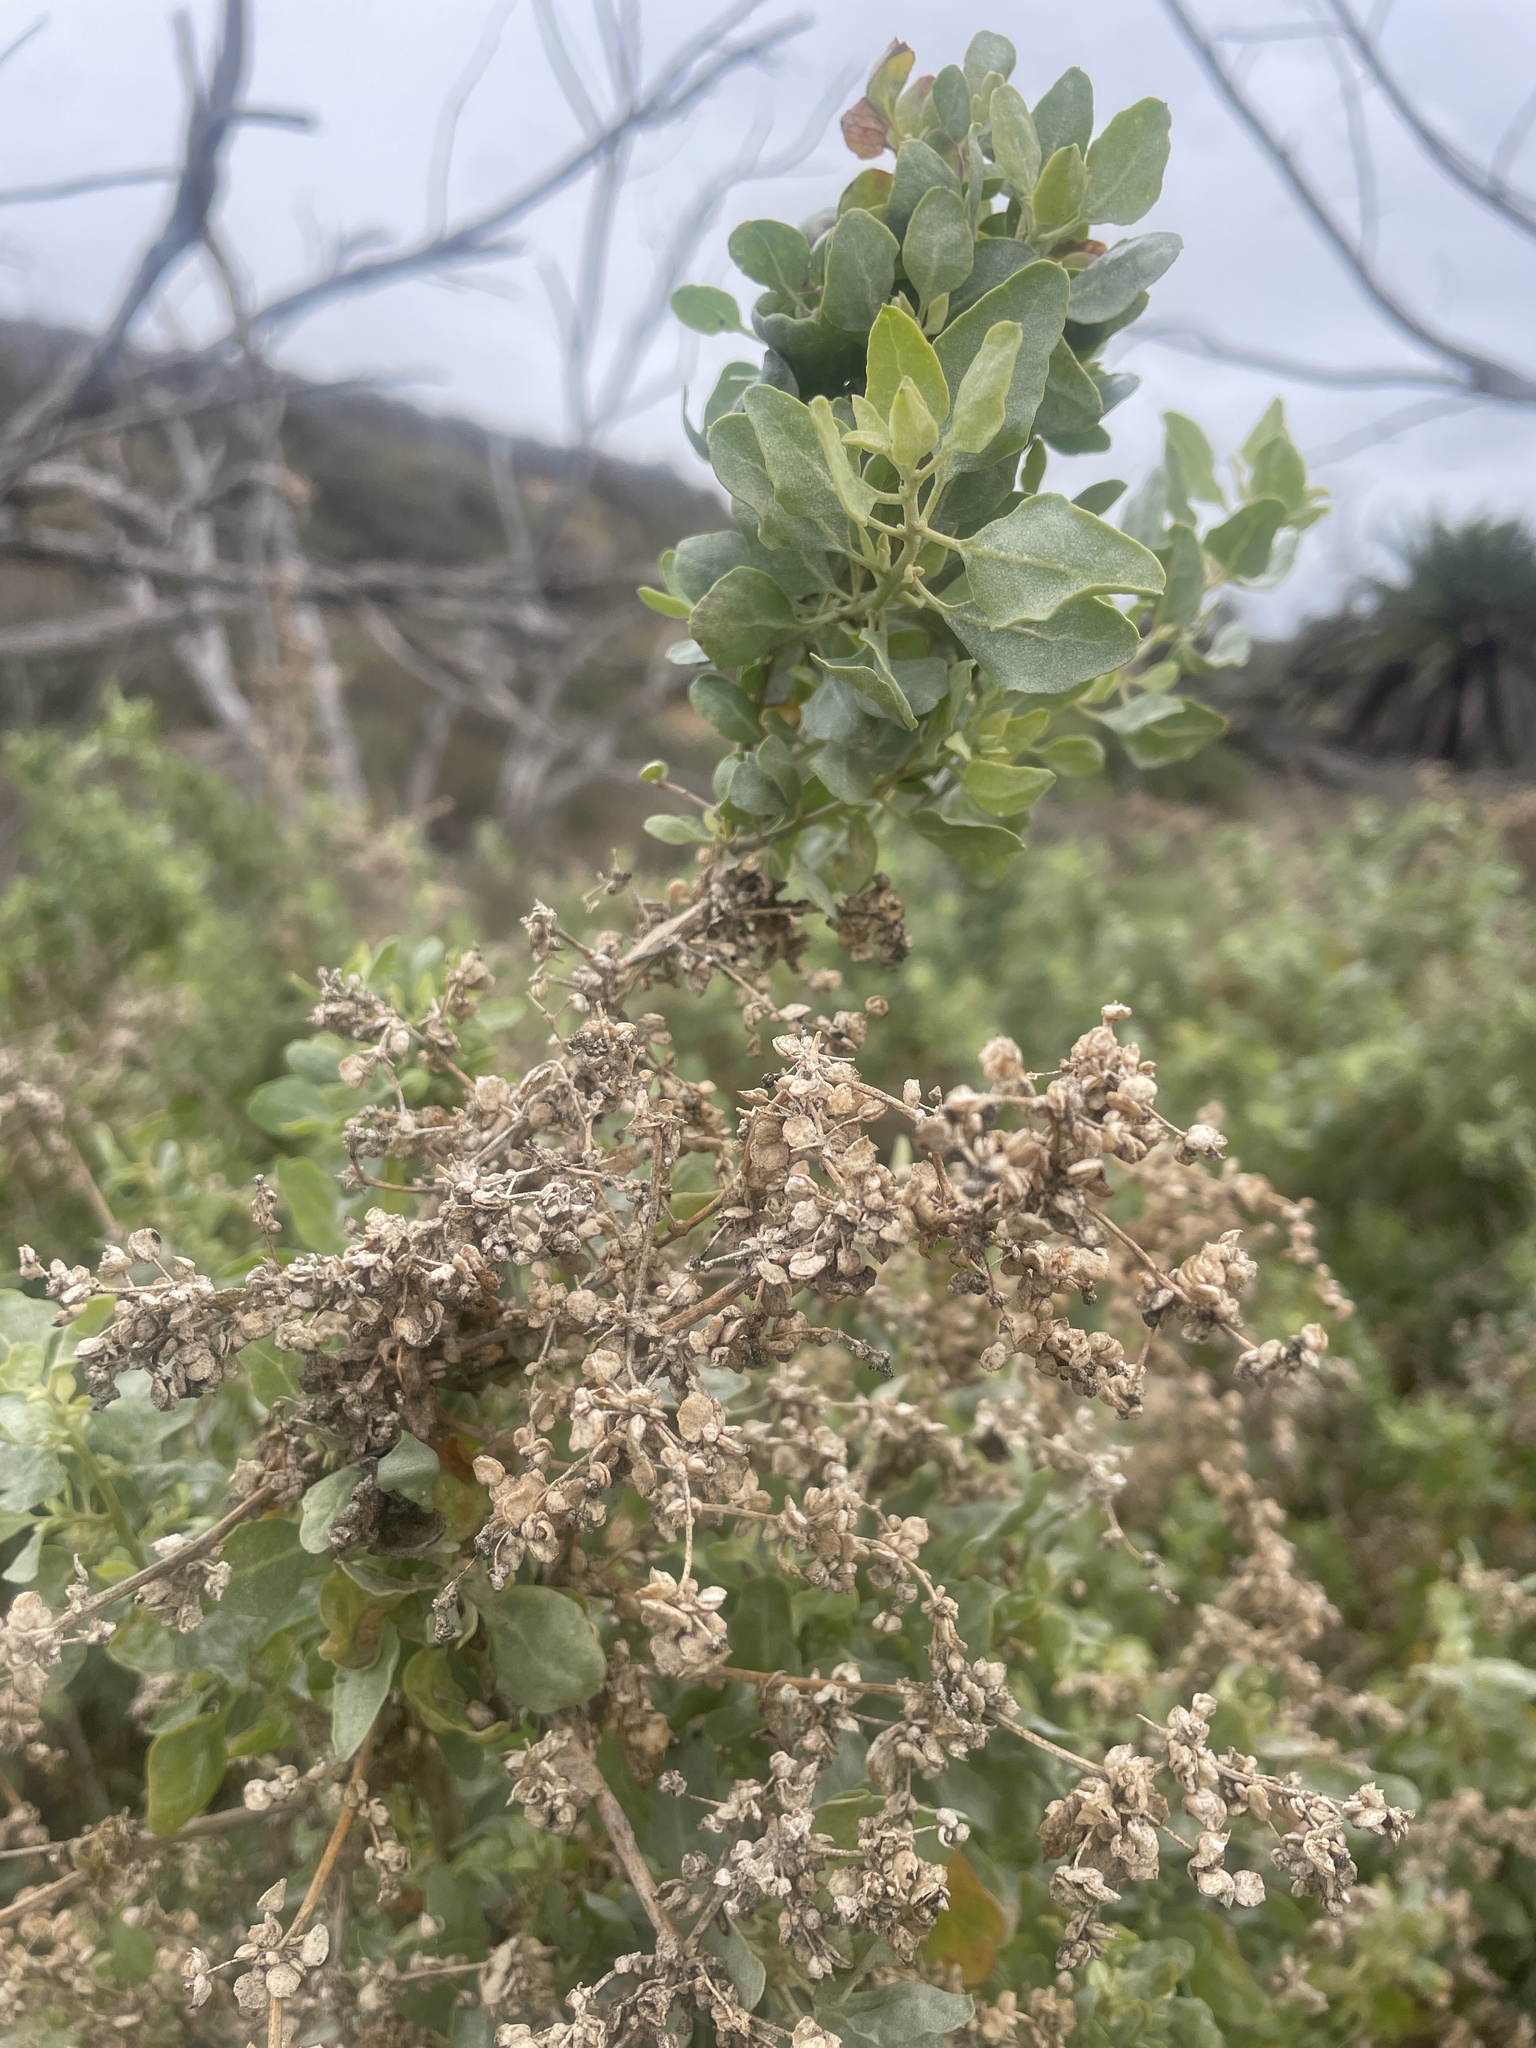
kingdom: Plantae
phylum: Tracheophyta
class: Magnoliopsida
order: Caryophyllales
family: Amaranthaceae
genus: Atriplex
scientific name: Atriplex lentiformis
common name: Big saltbush
